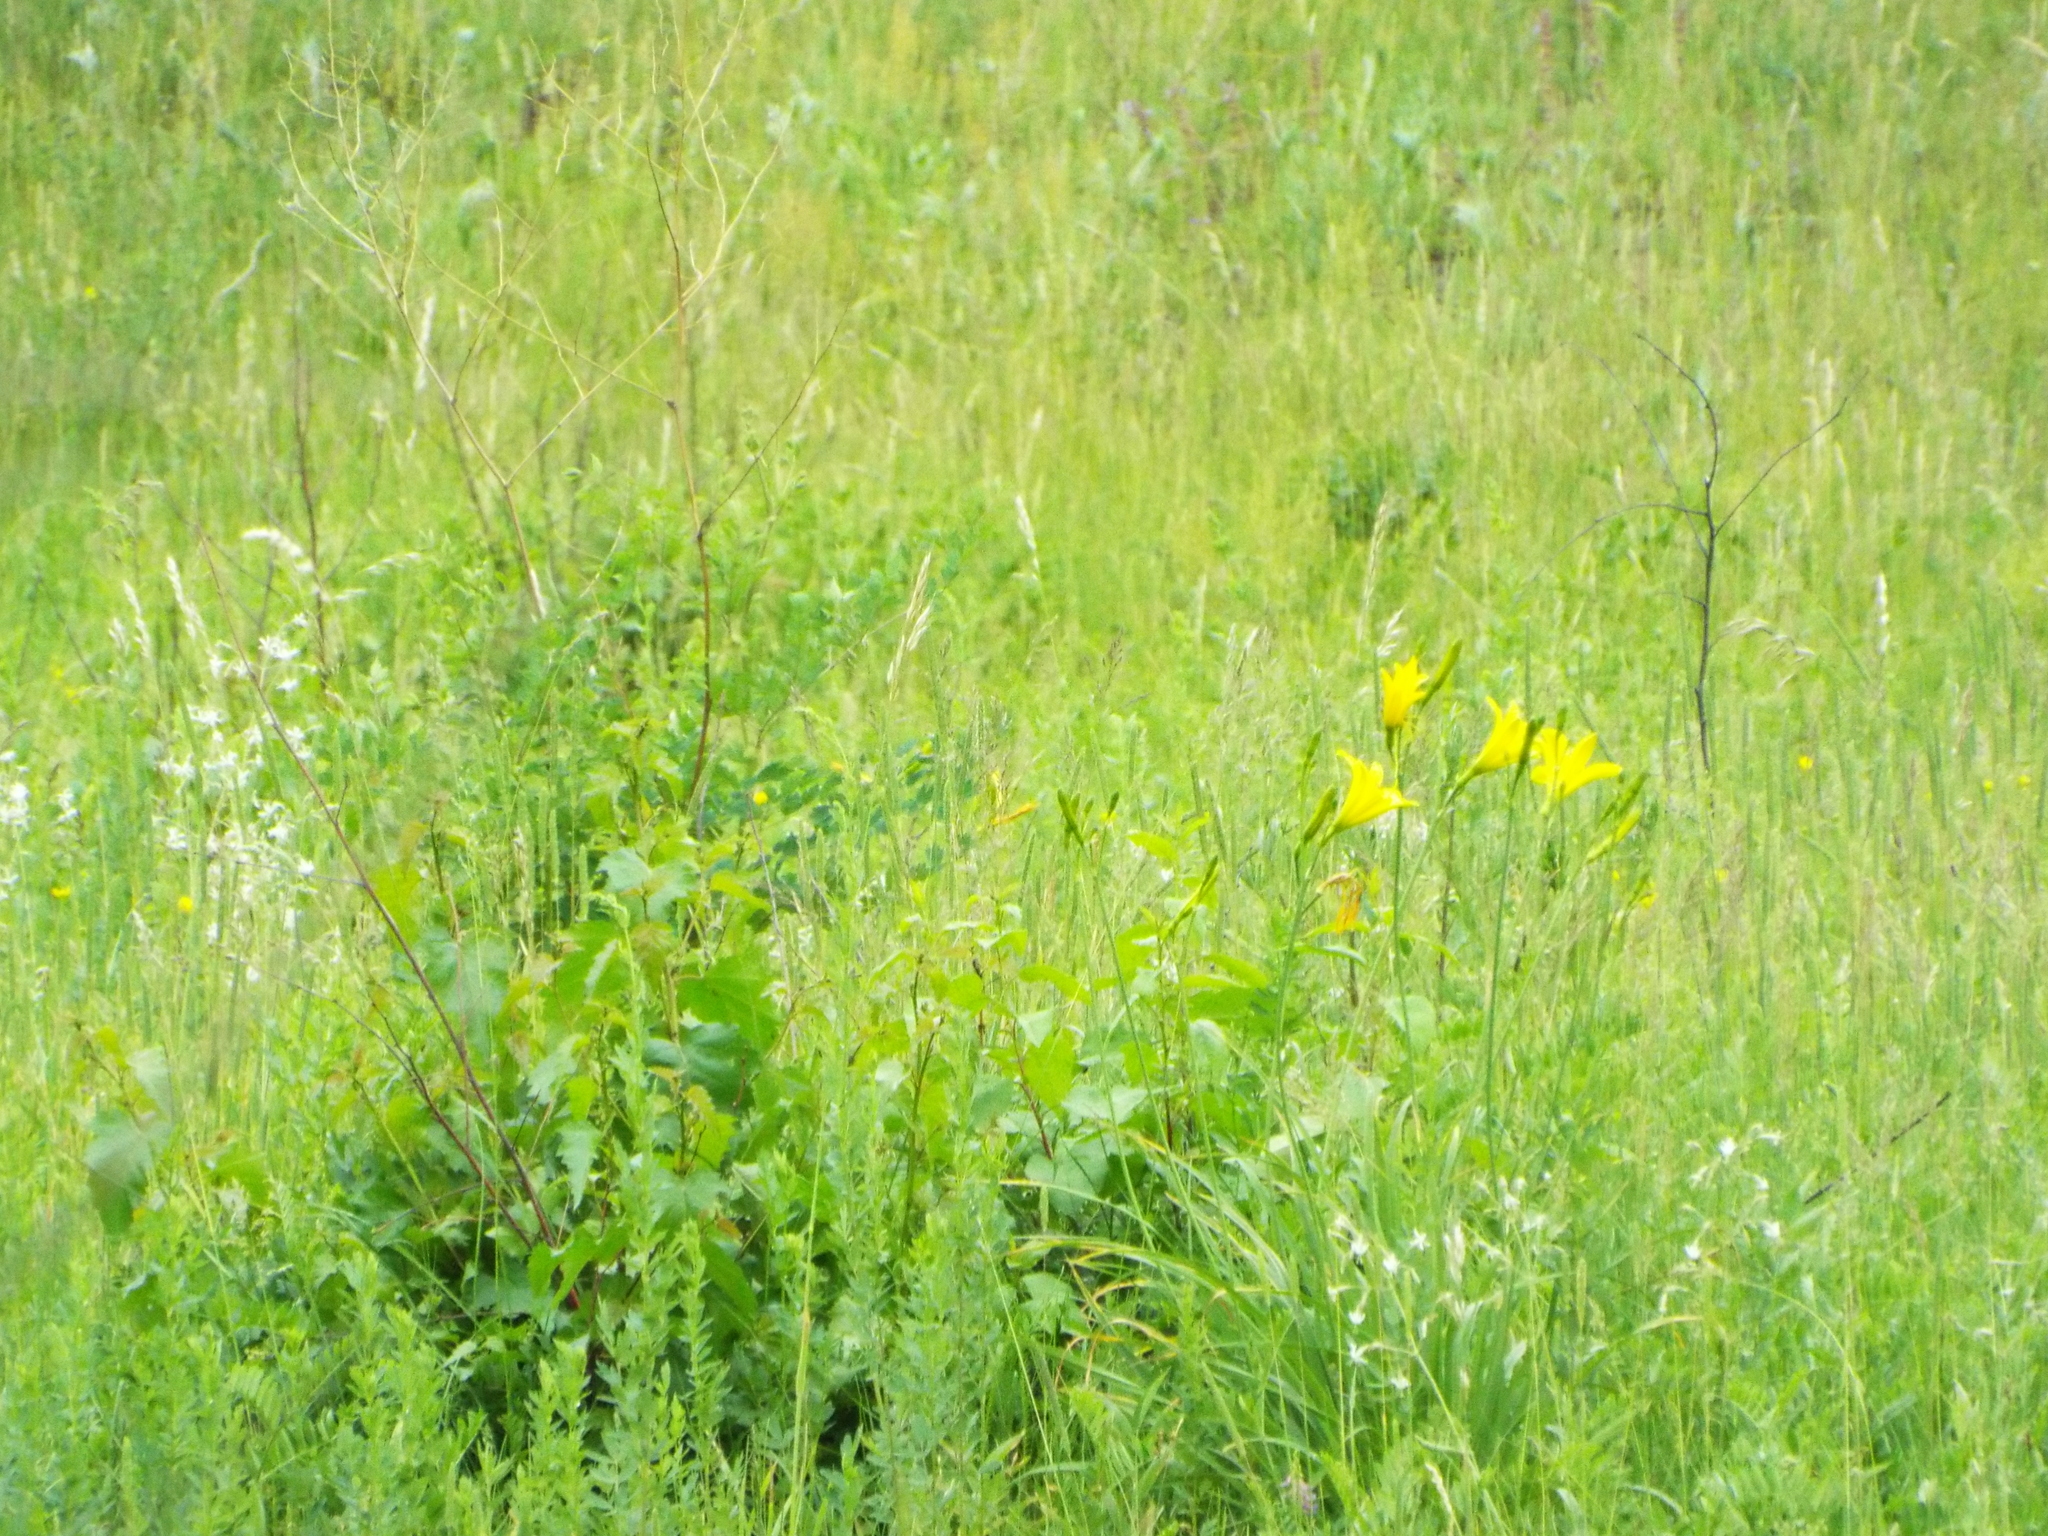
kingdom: Plantae
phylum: Tracheophyta
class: Liliopsida
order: Asparagales
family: Asphodelaceae
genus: Hemerocallis
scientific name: Hemerocallis minor
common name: Small daylily
